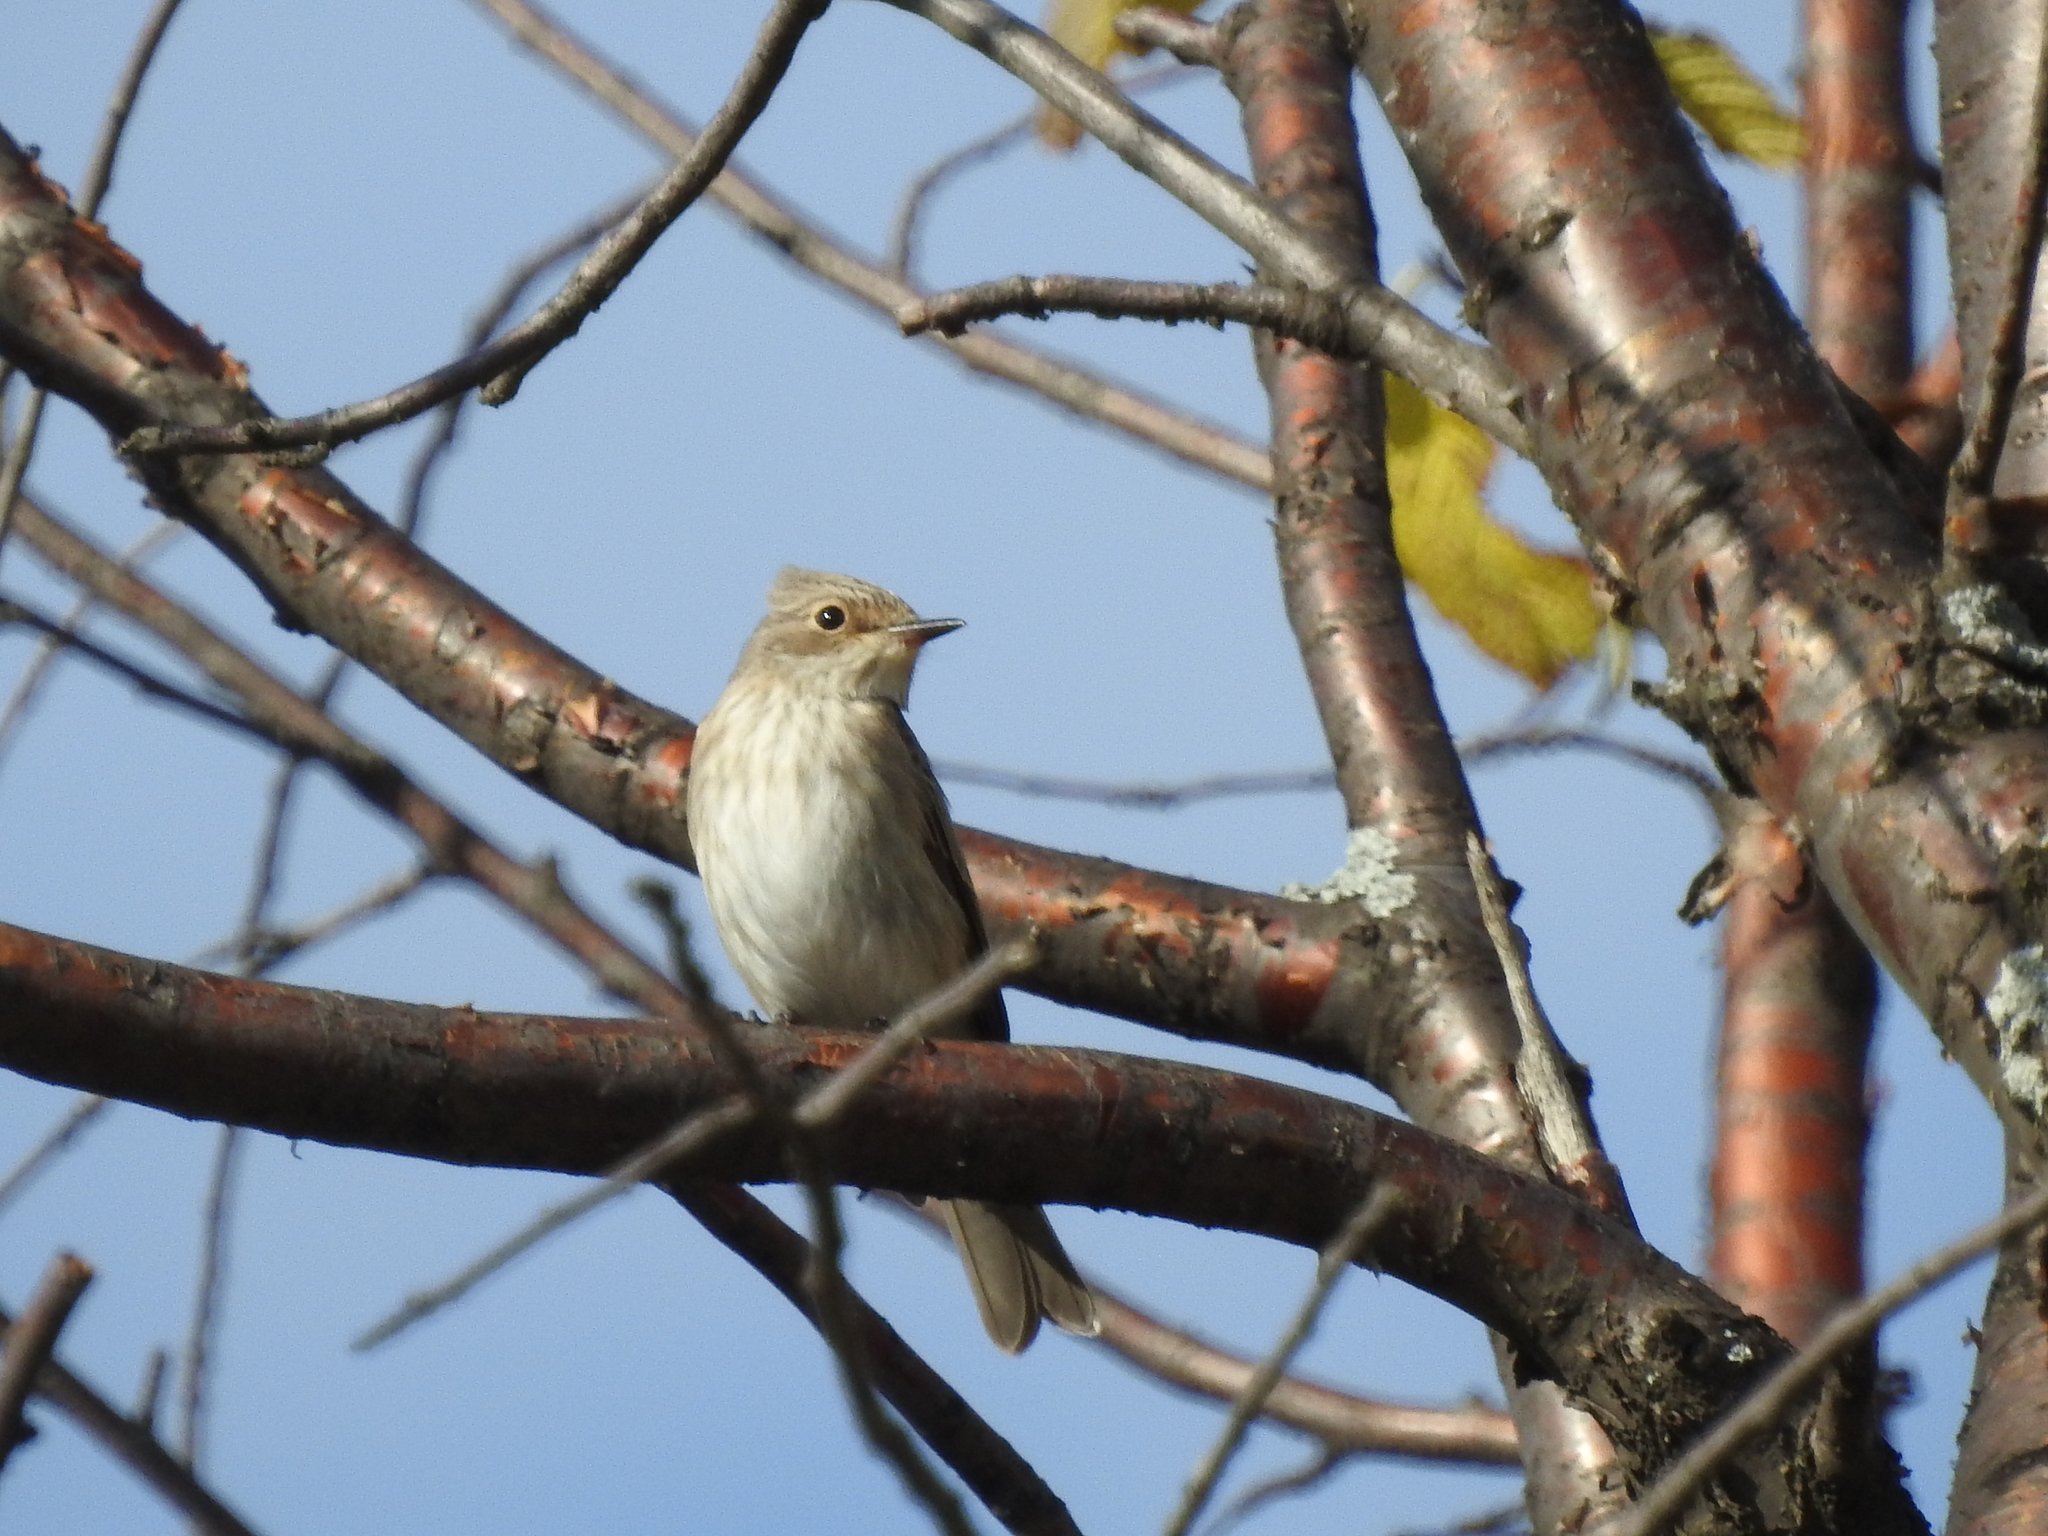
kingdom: Animalia
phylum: Chordata
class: Aves
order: Passeriformes
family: Muscicapidae
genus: Muscicapa
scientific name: Muscicapa striata
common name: Spotted flycatcher
